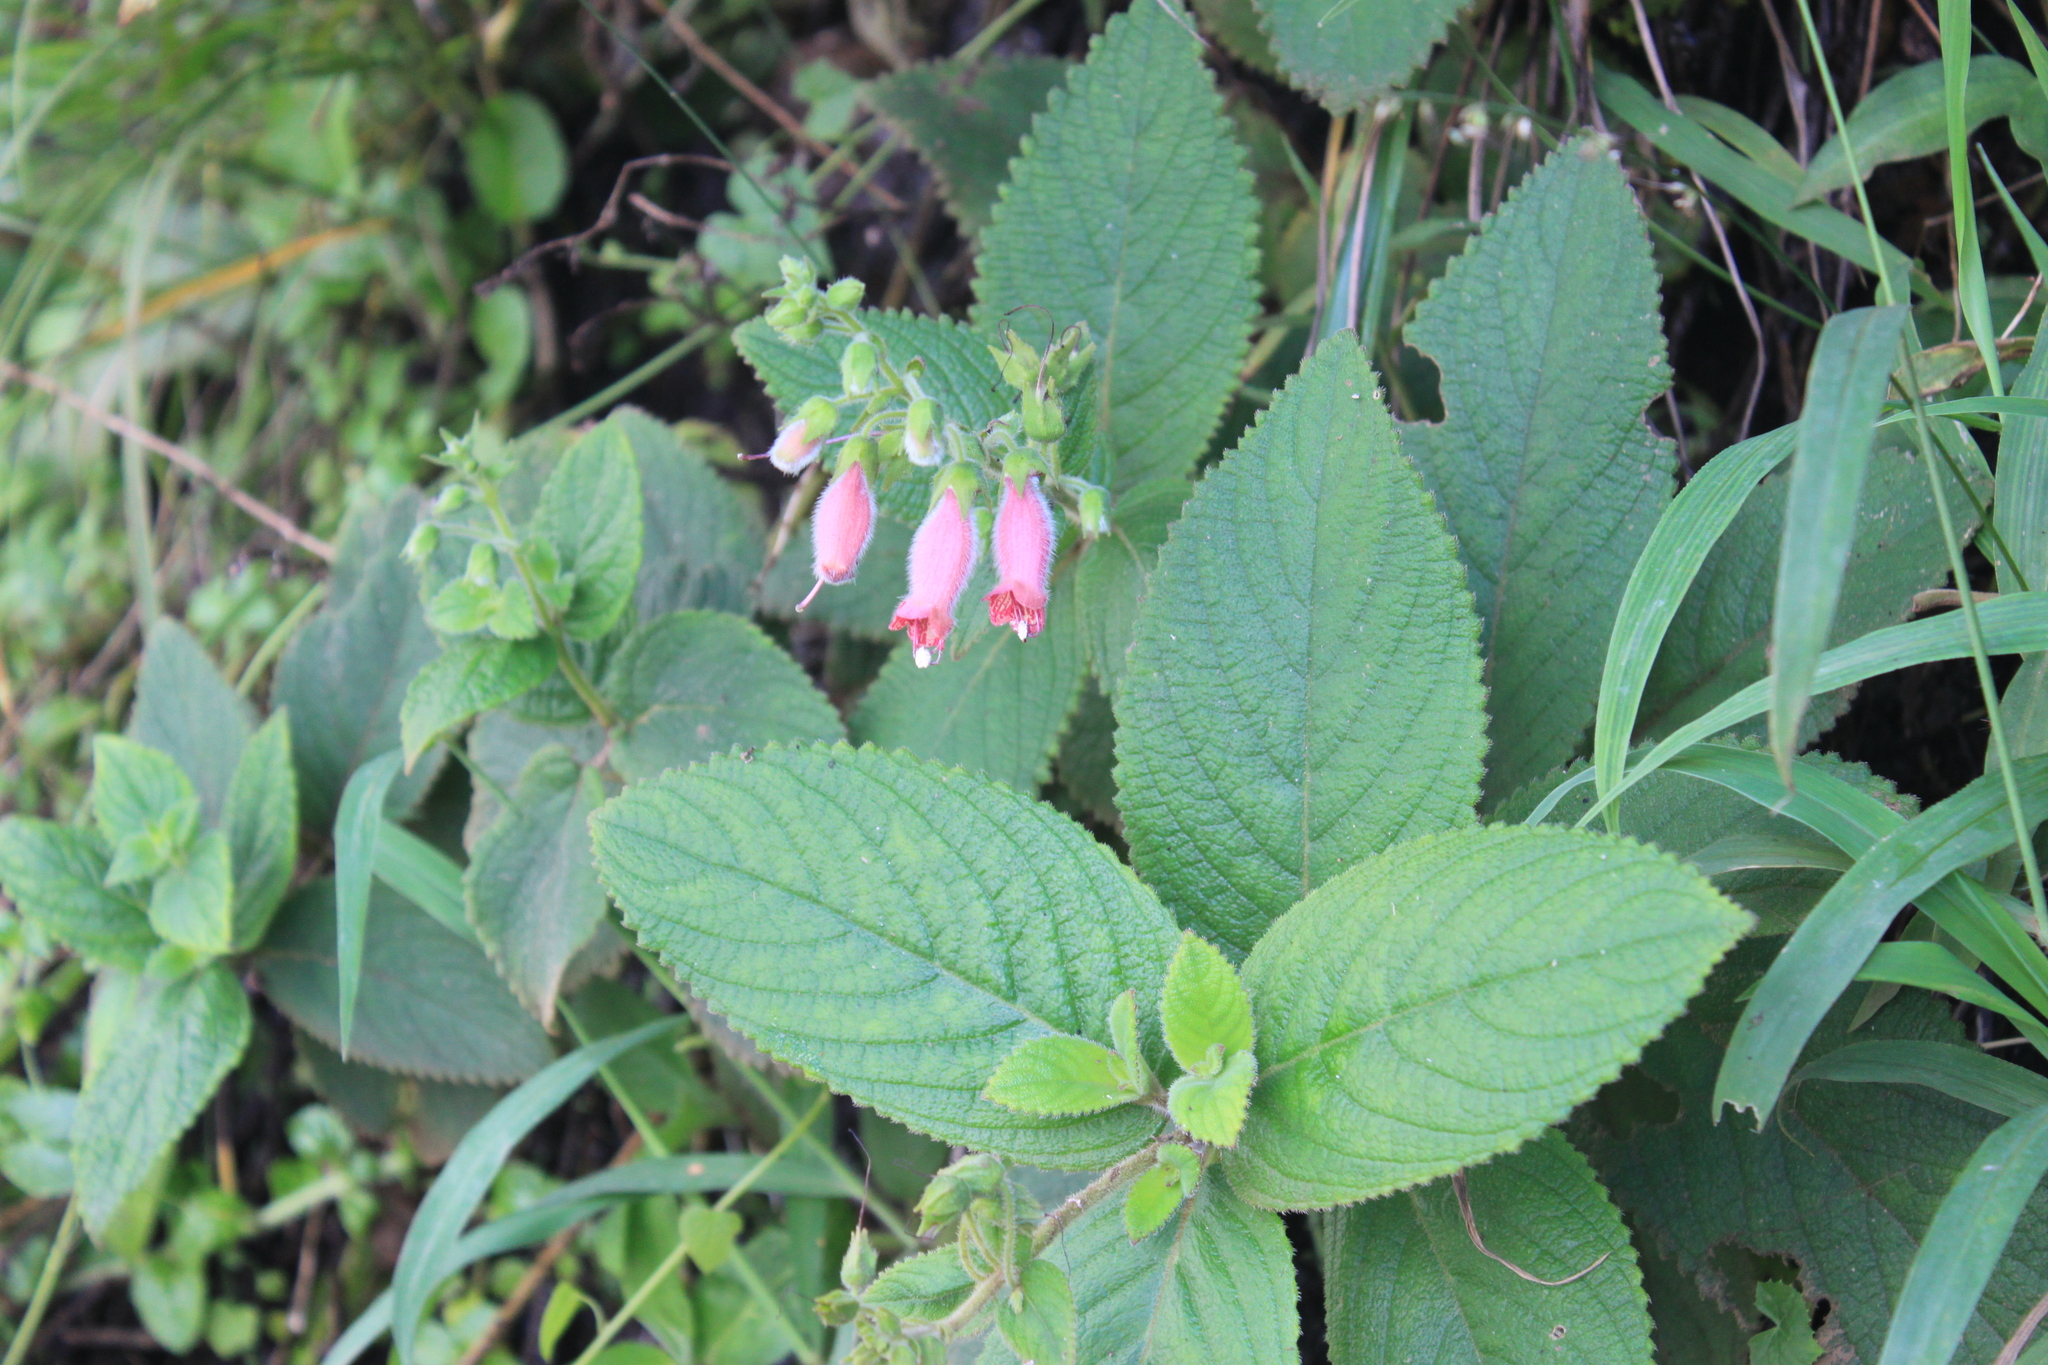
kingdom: Plantae
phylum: Tracheophyta
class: Magnoliopsida
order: Lamiales
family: Gesneriaceae
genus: Sinningia
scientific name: Sinningia sellovii
